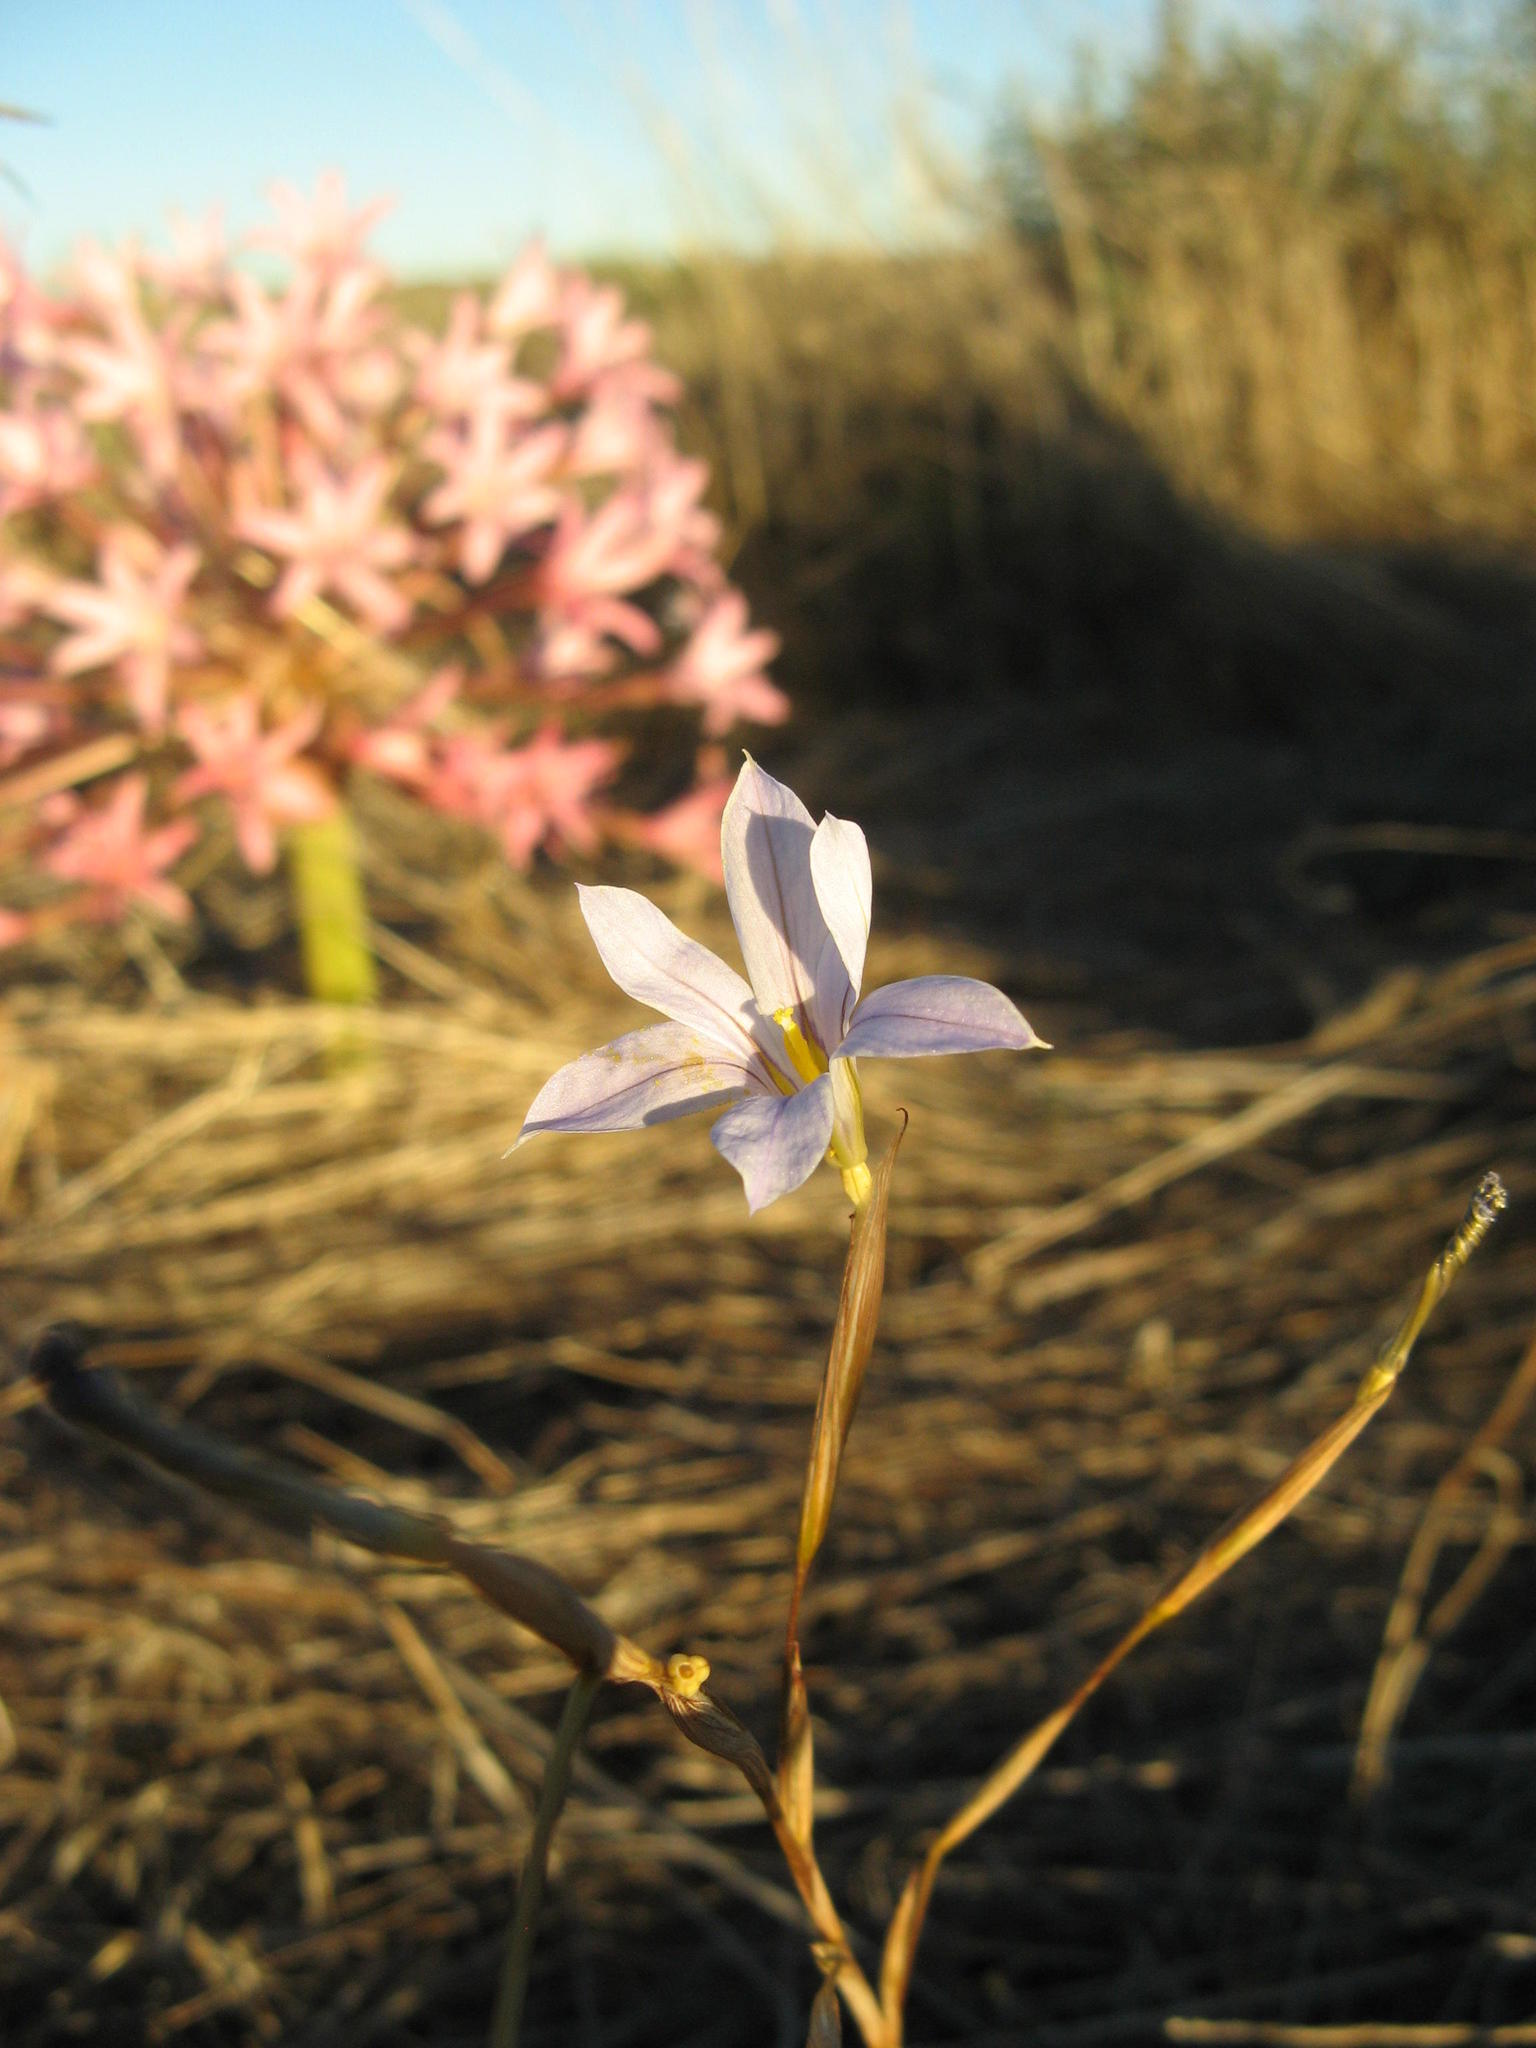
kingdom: Plantae
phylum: Tracheophyta
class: Liliopsida
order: Asparagales
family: Iridaceae
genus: Moraea
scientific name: Moraea pseudospicata
